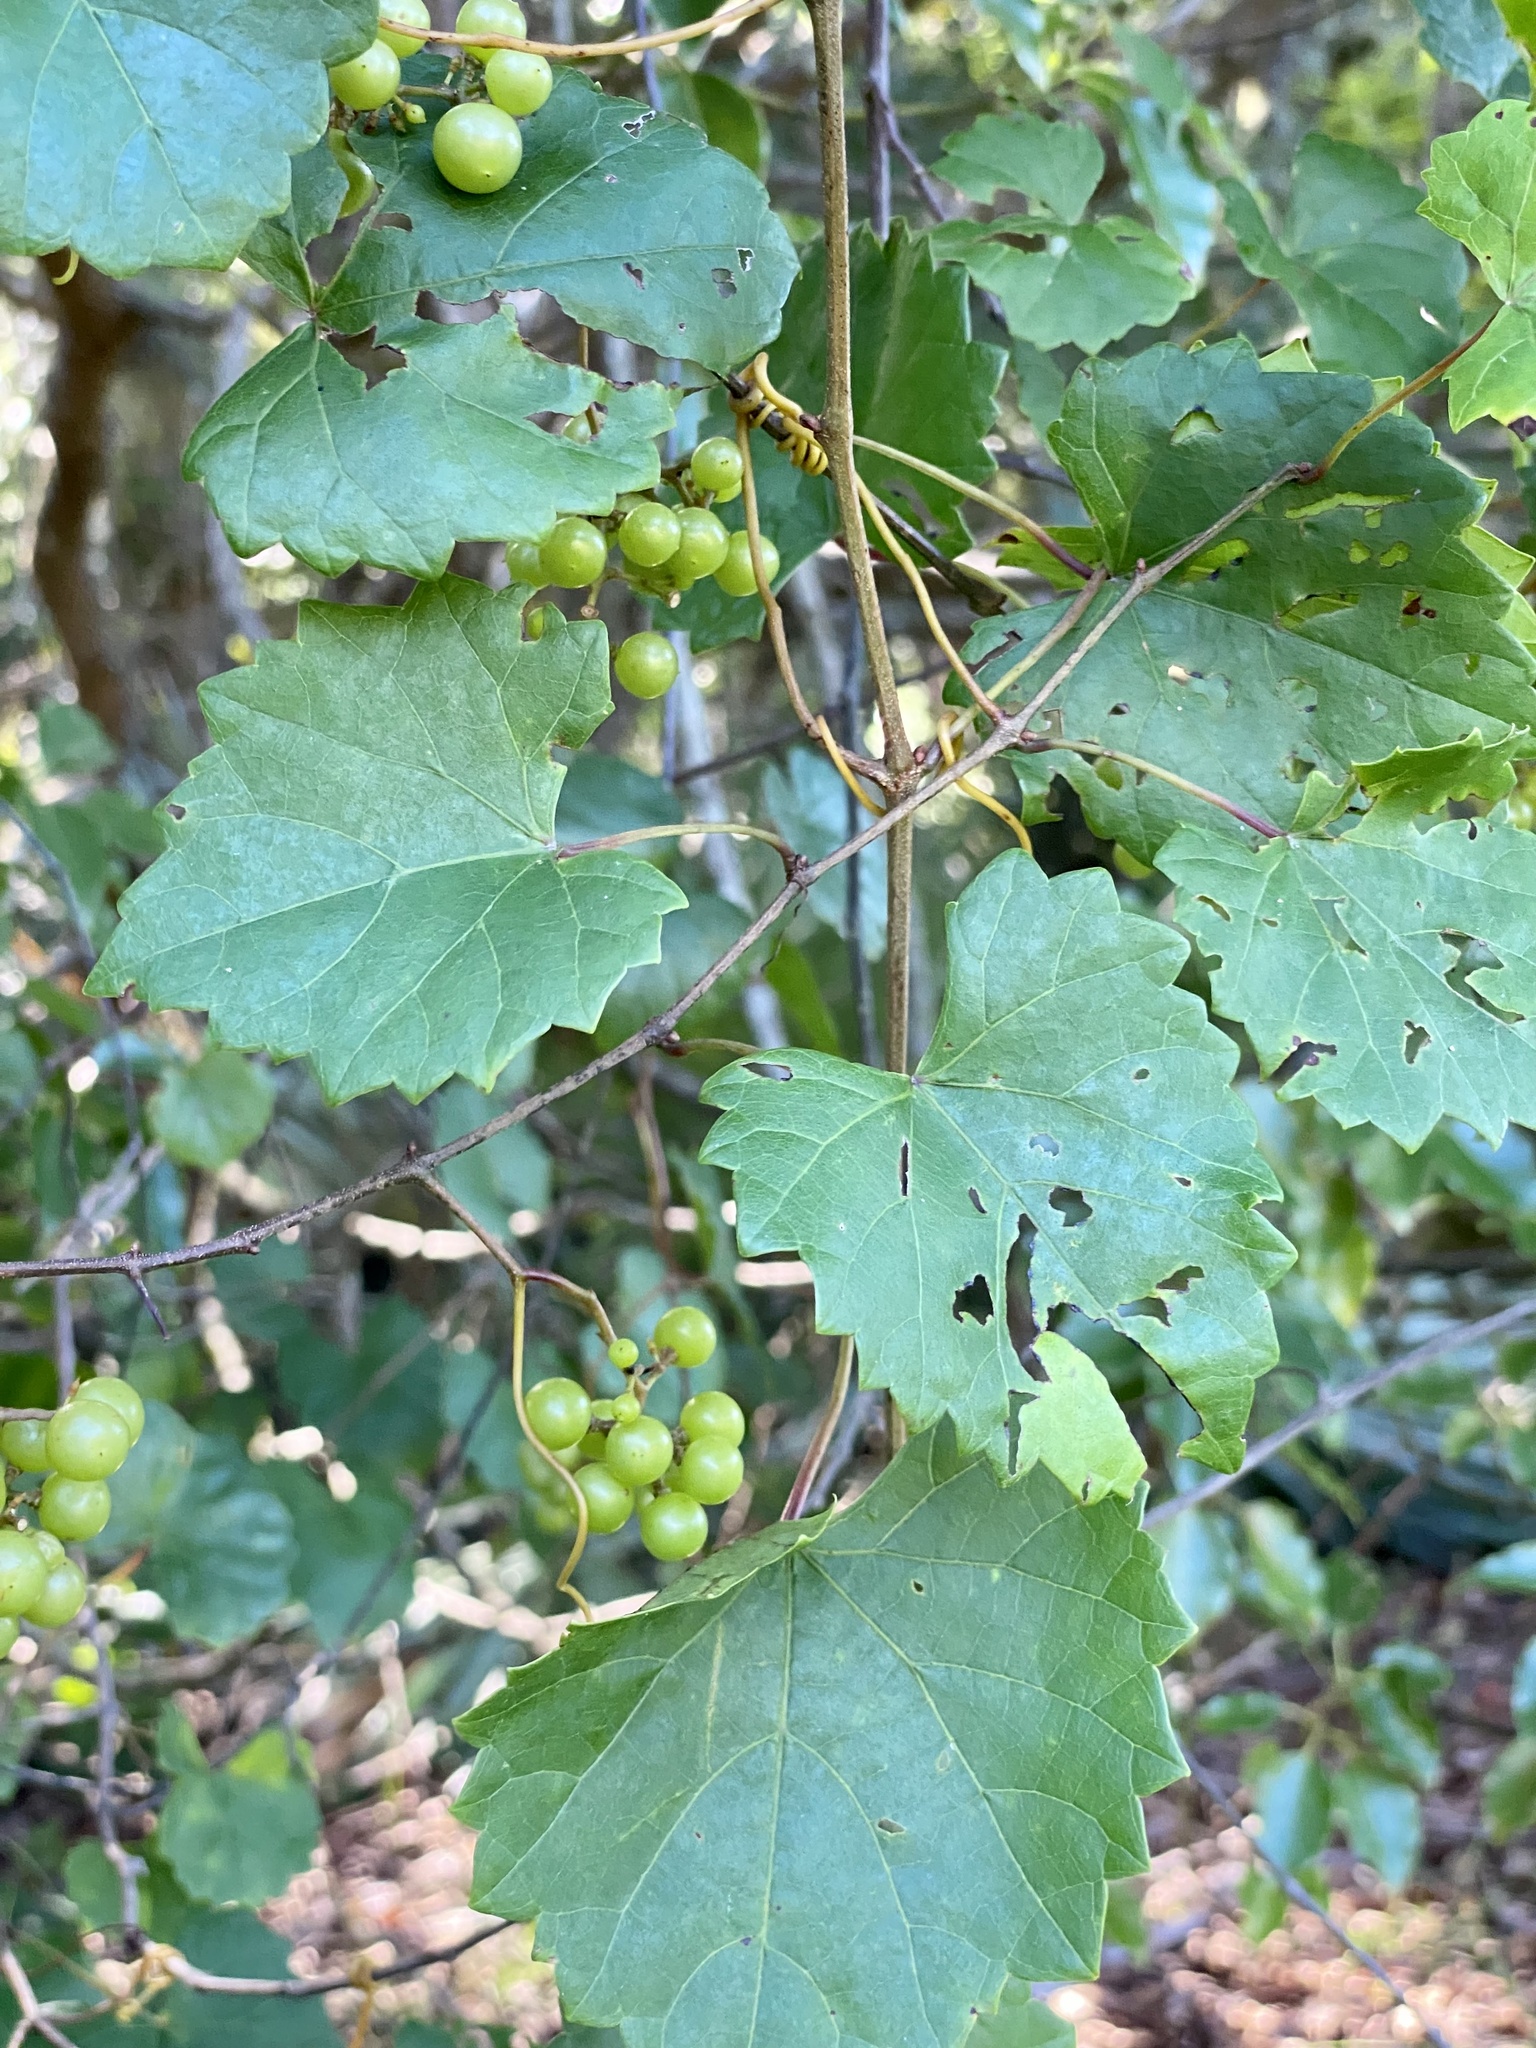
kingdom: Plantae
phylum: Tracheophyta
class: Magnoliopsida
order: Vitales
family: Vitaceae
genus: Vitis
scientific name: Vitis rotundifolia
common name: Muscadine grape
